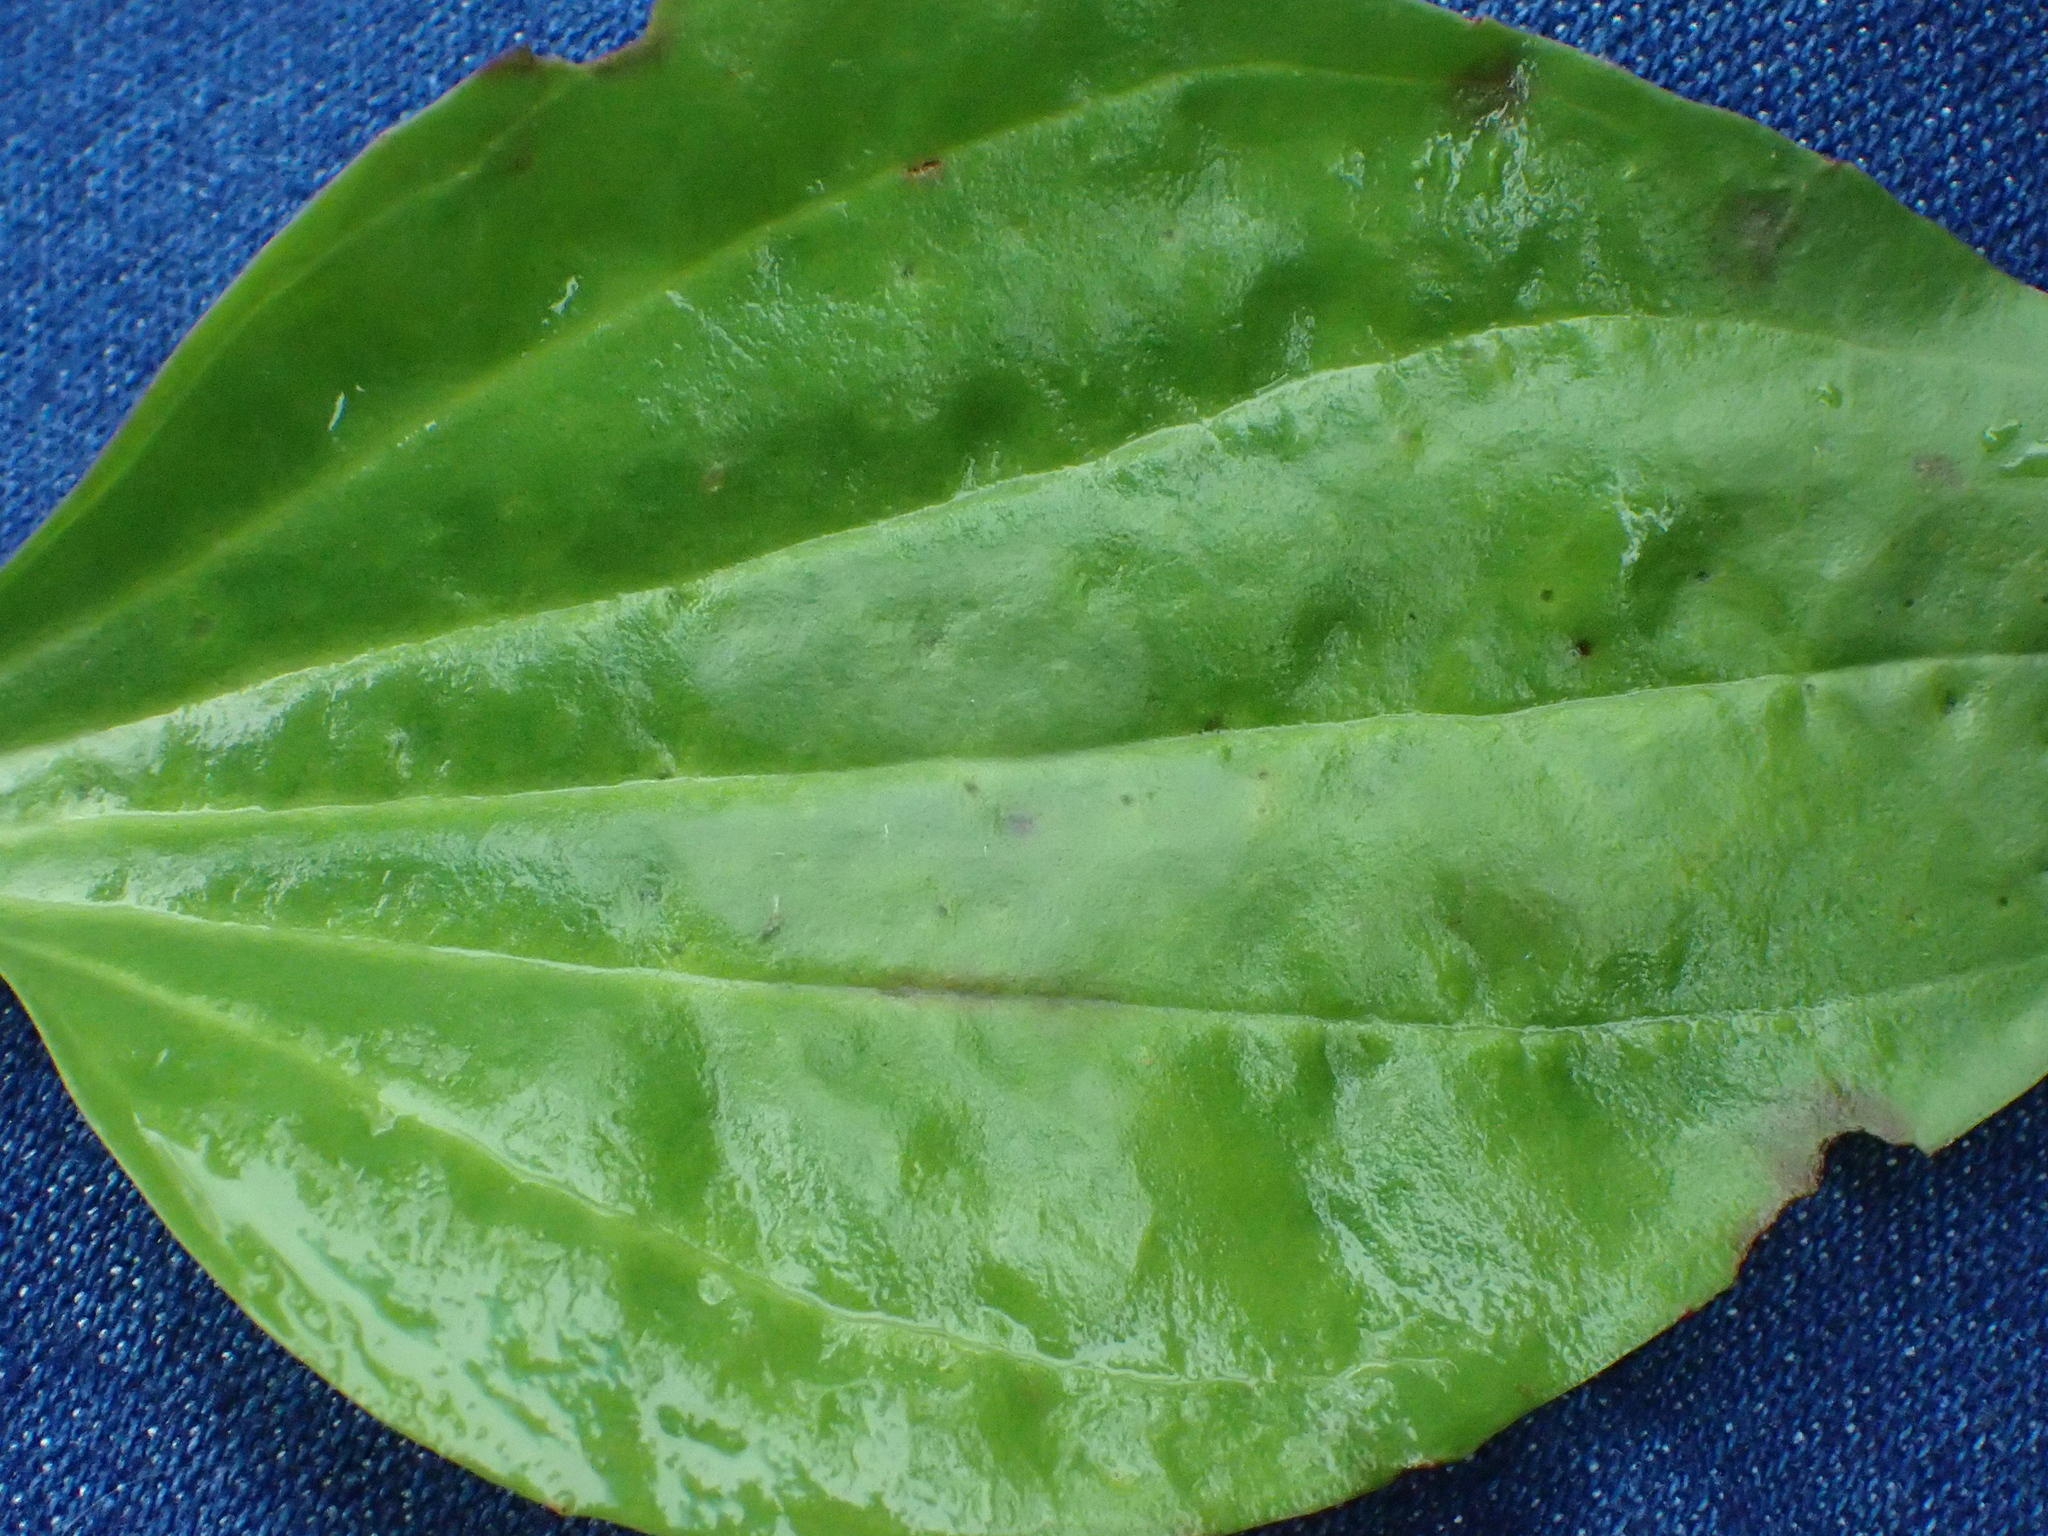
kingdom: Plantae
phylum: Tracheophyta
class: Magnoliopsida
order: Lamiales
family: Plantaginaceae
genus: Plantago
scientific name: Plantago major
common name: Common plantain
